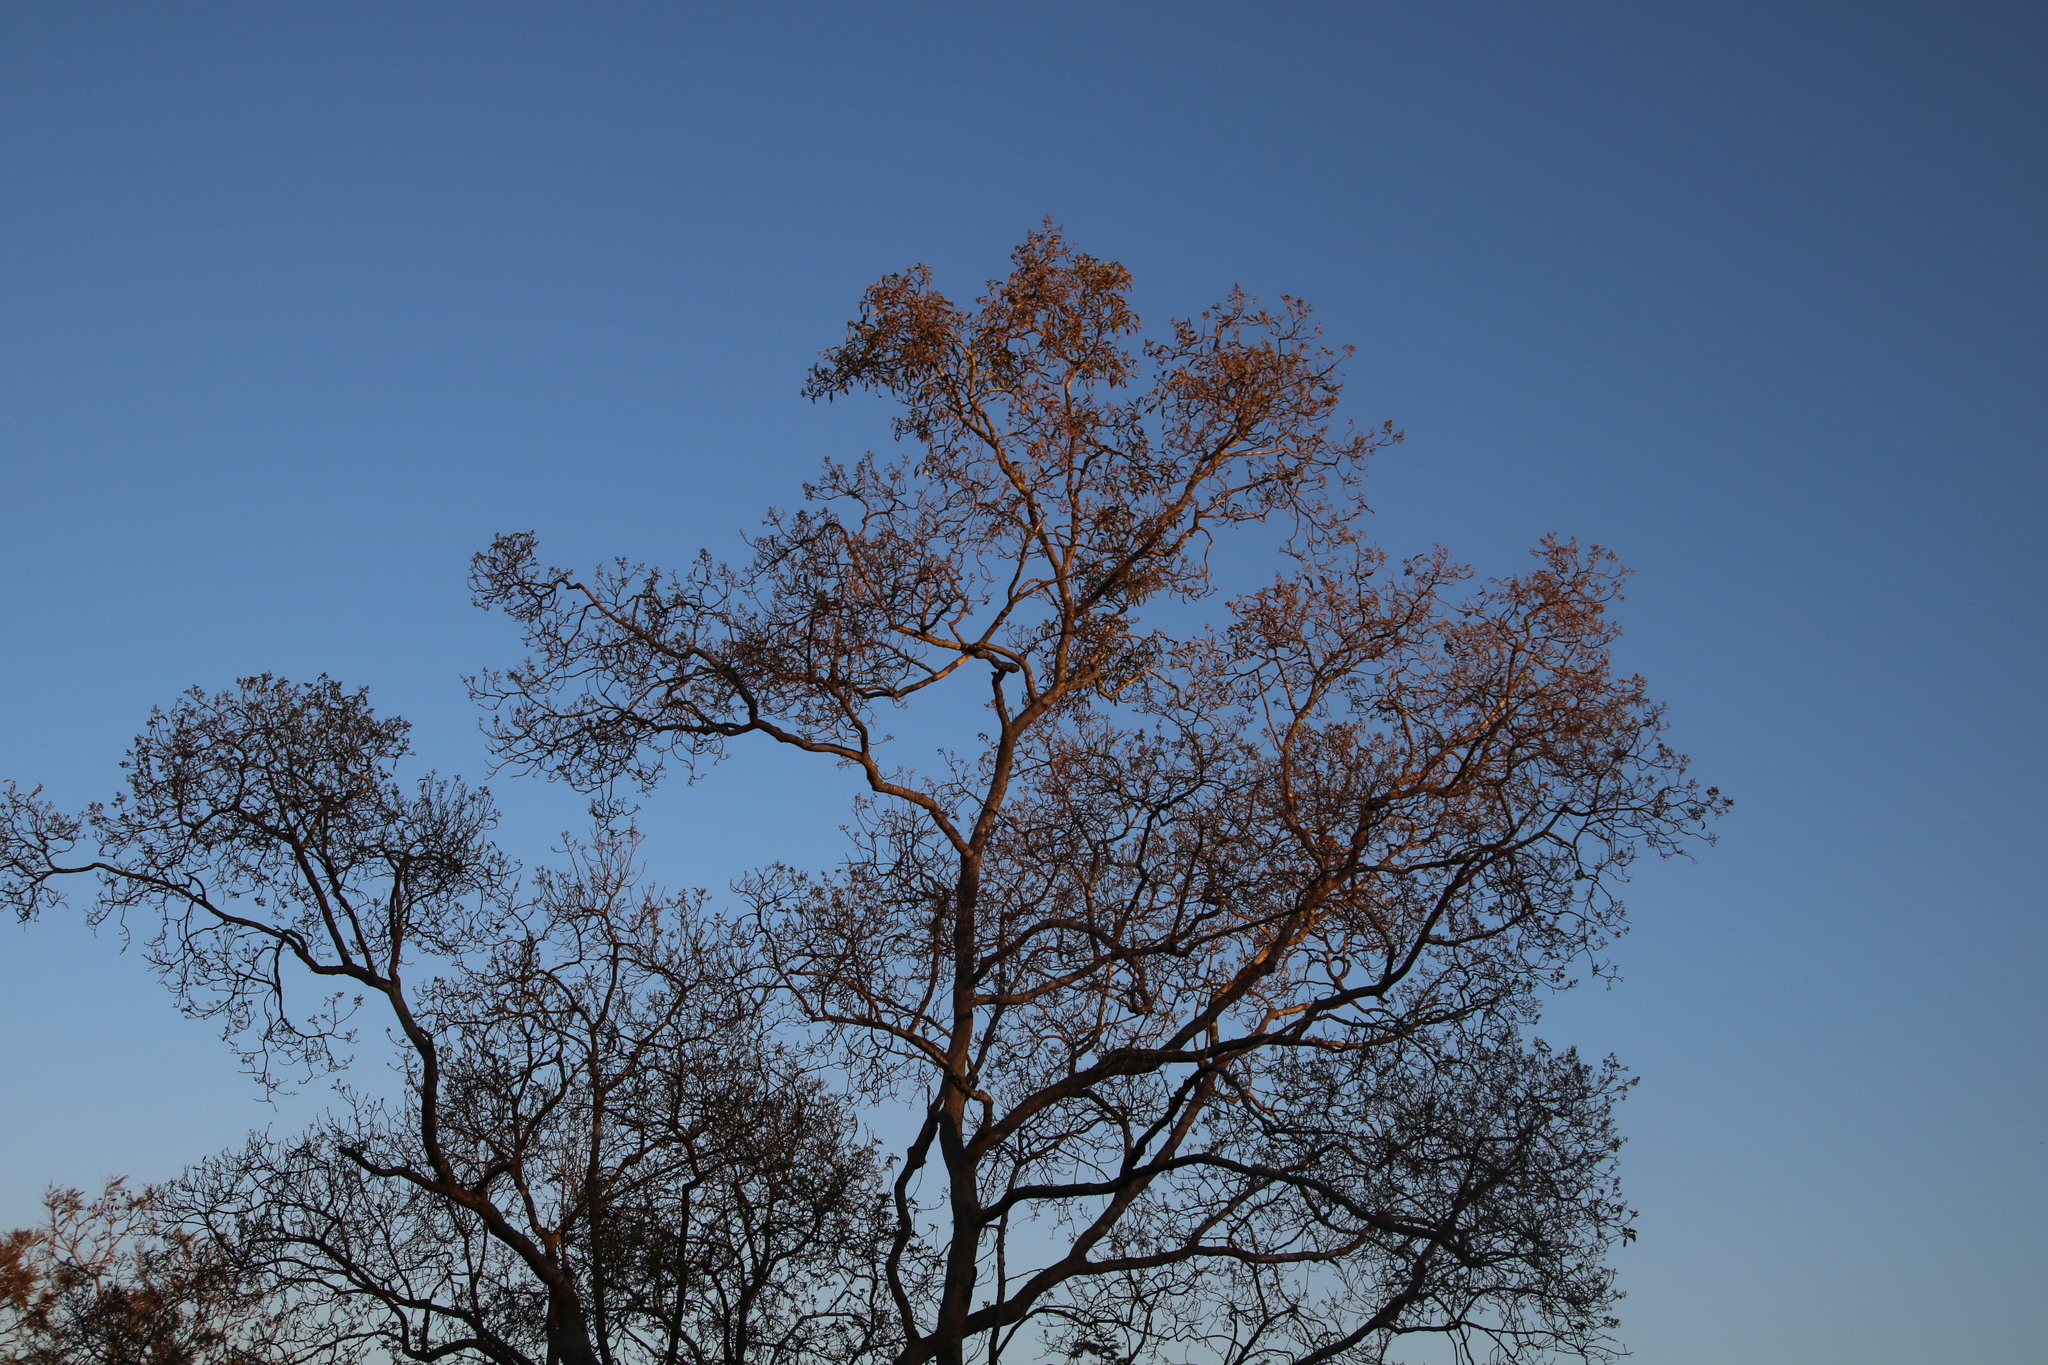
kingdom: Plantae
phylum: Tracheophyta
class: Magnoliopsida
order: Myrtales
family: Myrtaceae
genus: Heteropyxis
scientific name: Heteropyxis natalensis
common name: Lavender tree
